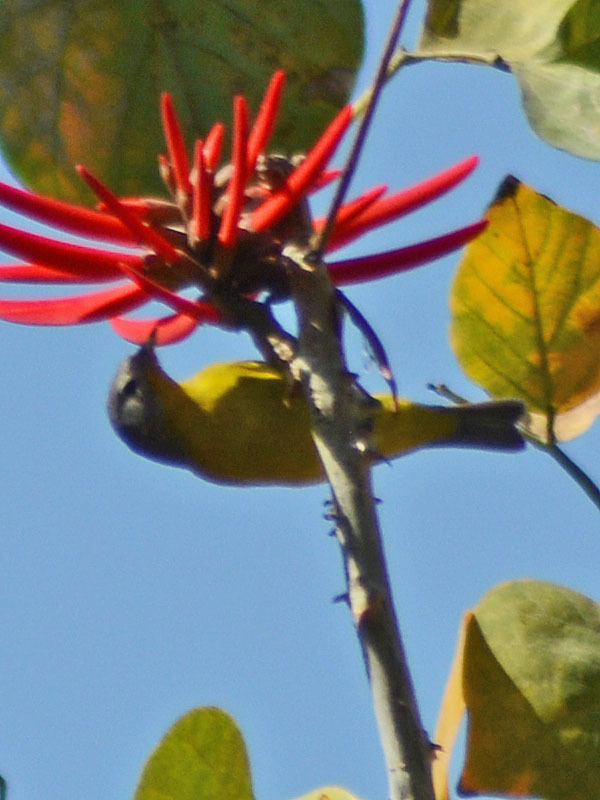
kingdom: Animalia
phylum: Chordata
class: Aves
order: Passeriformes
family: Parulidae
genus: Leiothlypis
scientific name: Leiothlypis ruficapilla
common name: Nashville warbler
